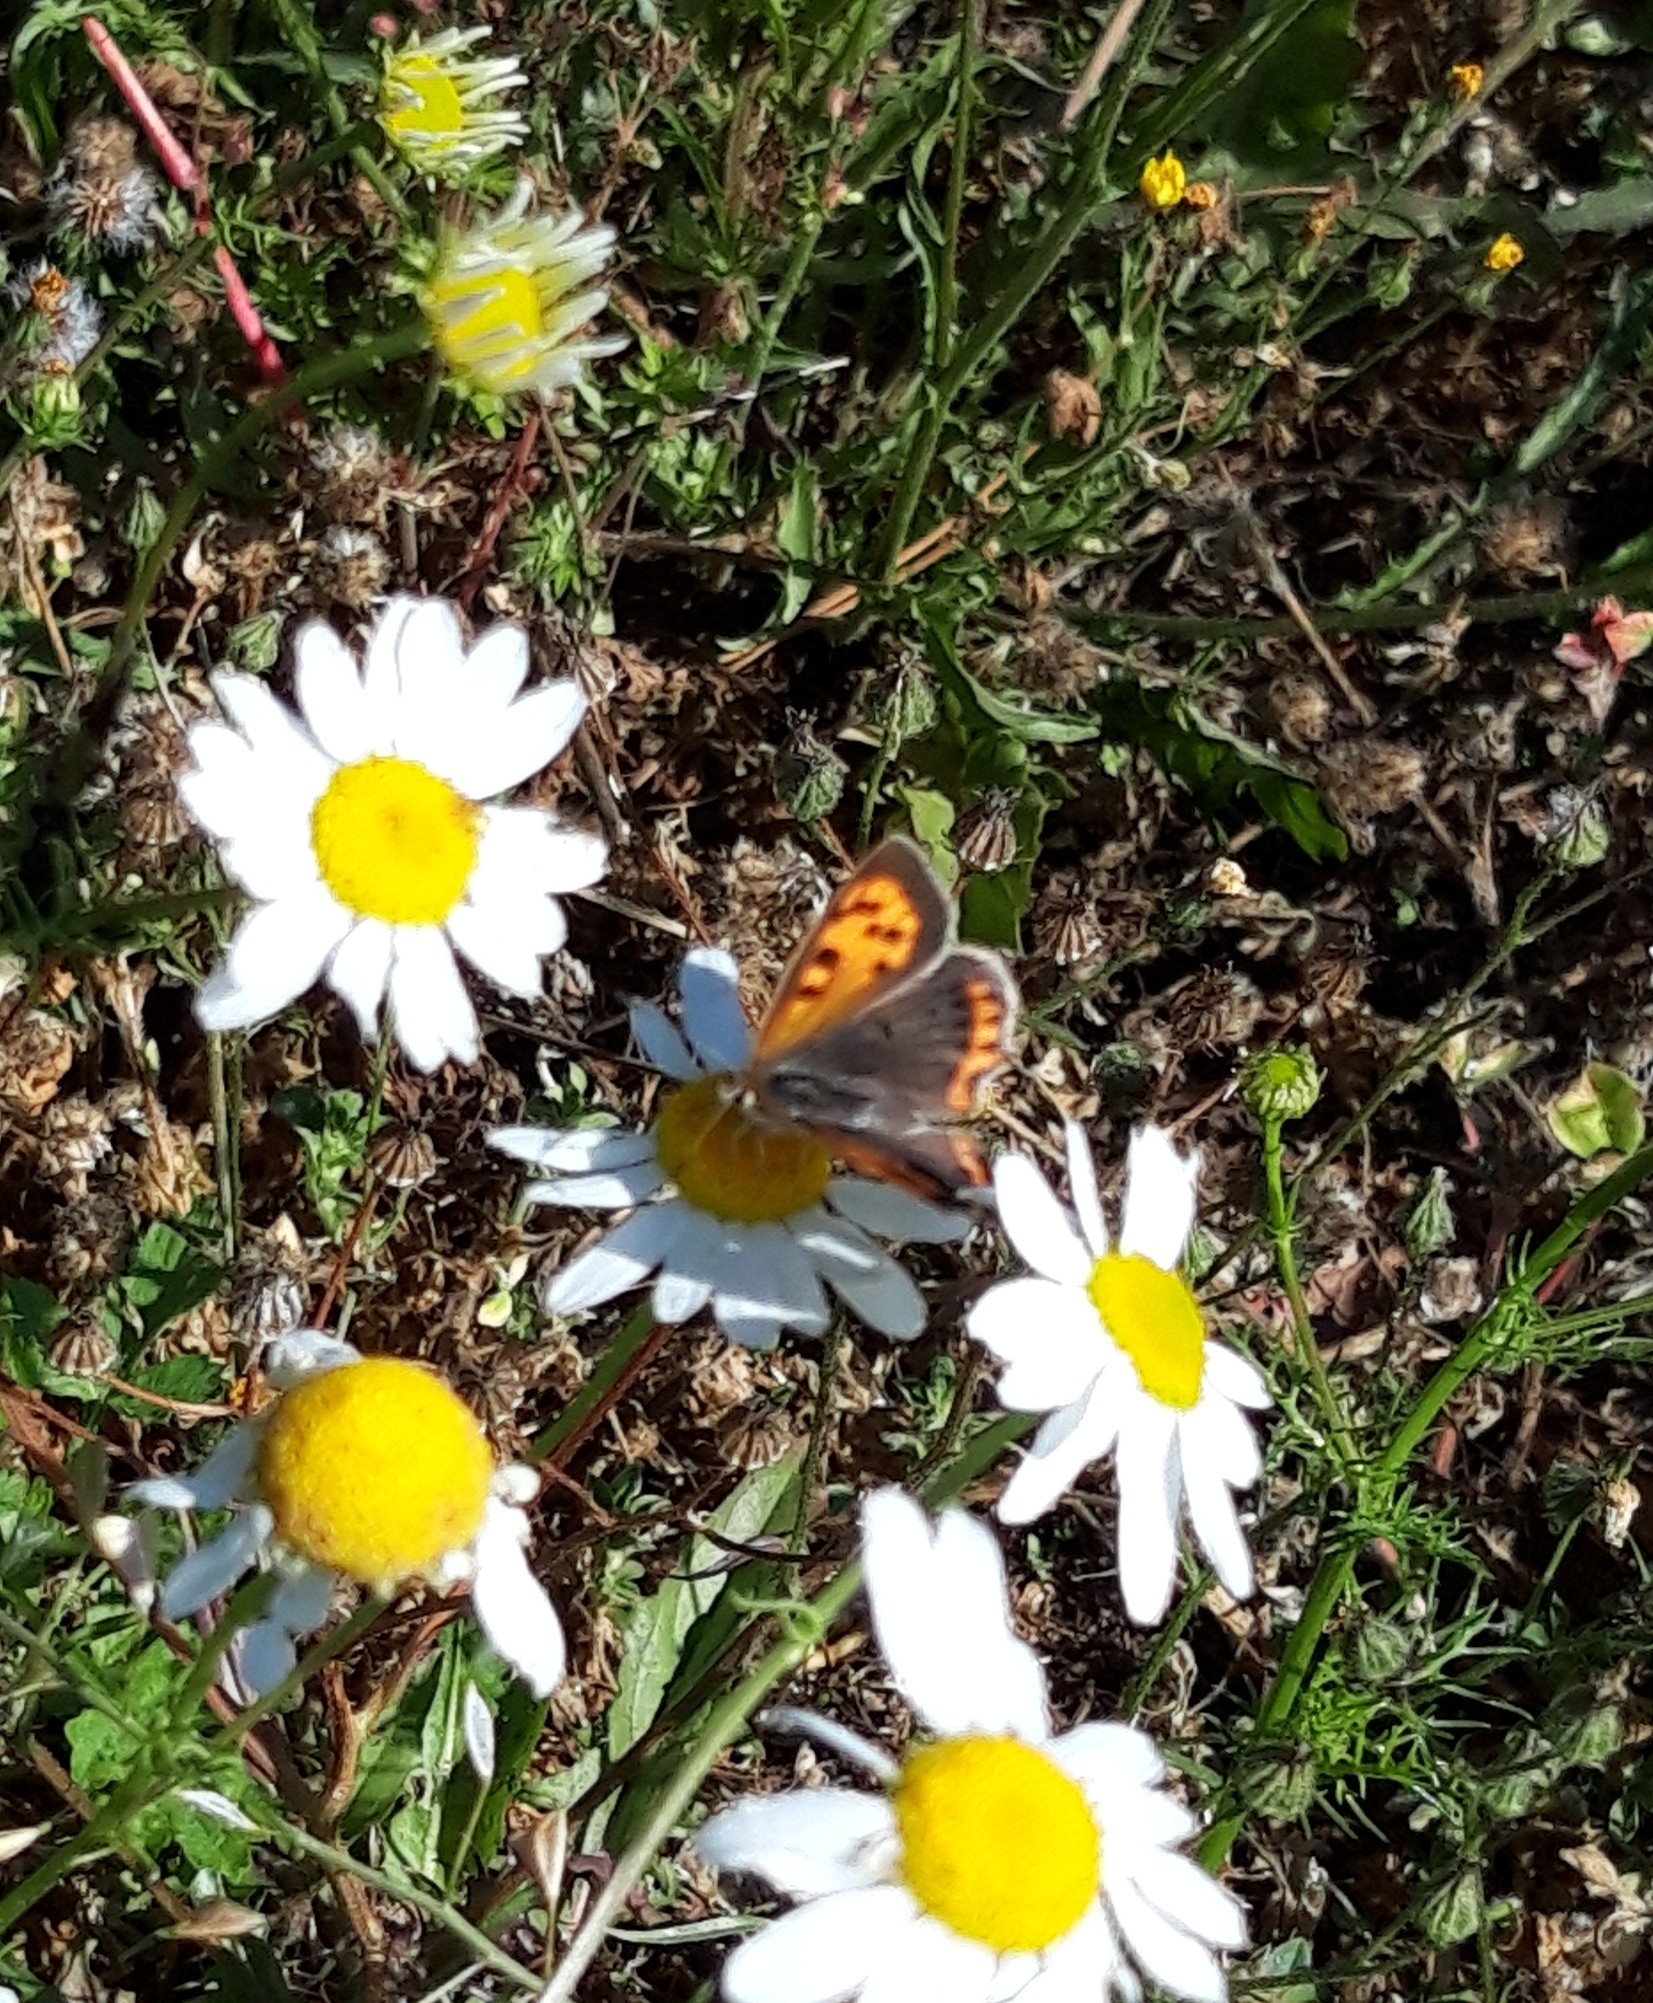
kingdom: Animalia
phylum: Arthropoda
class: Insecta
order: Lepidoptera
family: Lycaenidae
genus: Lycaena
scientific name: Lycaena phlaeas
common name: Small copper
